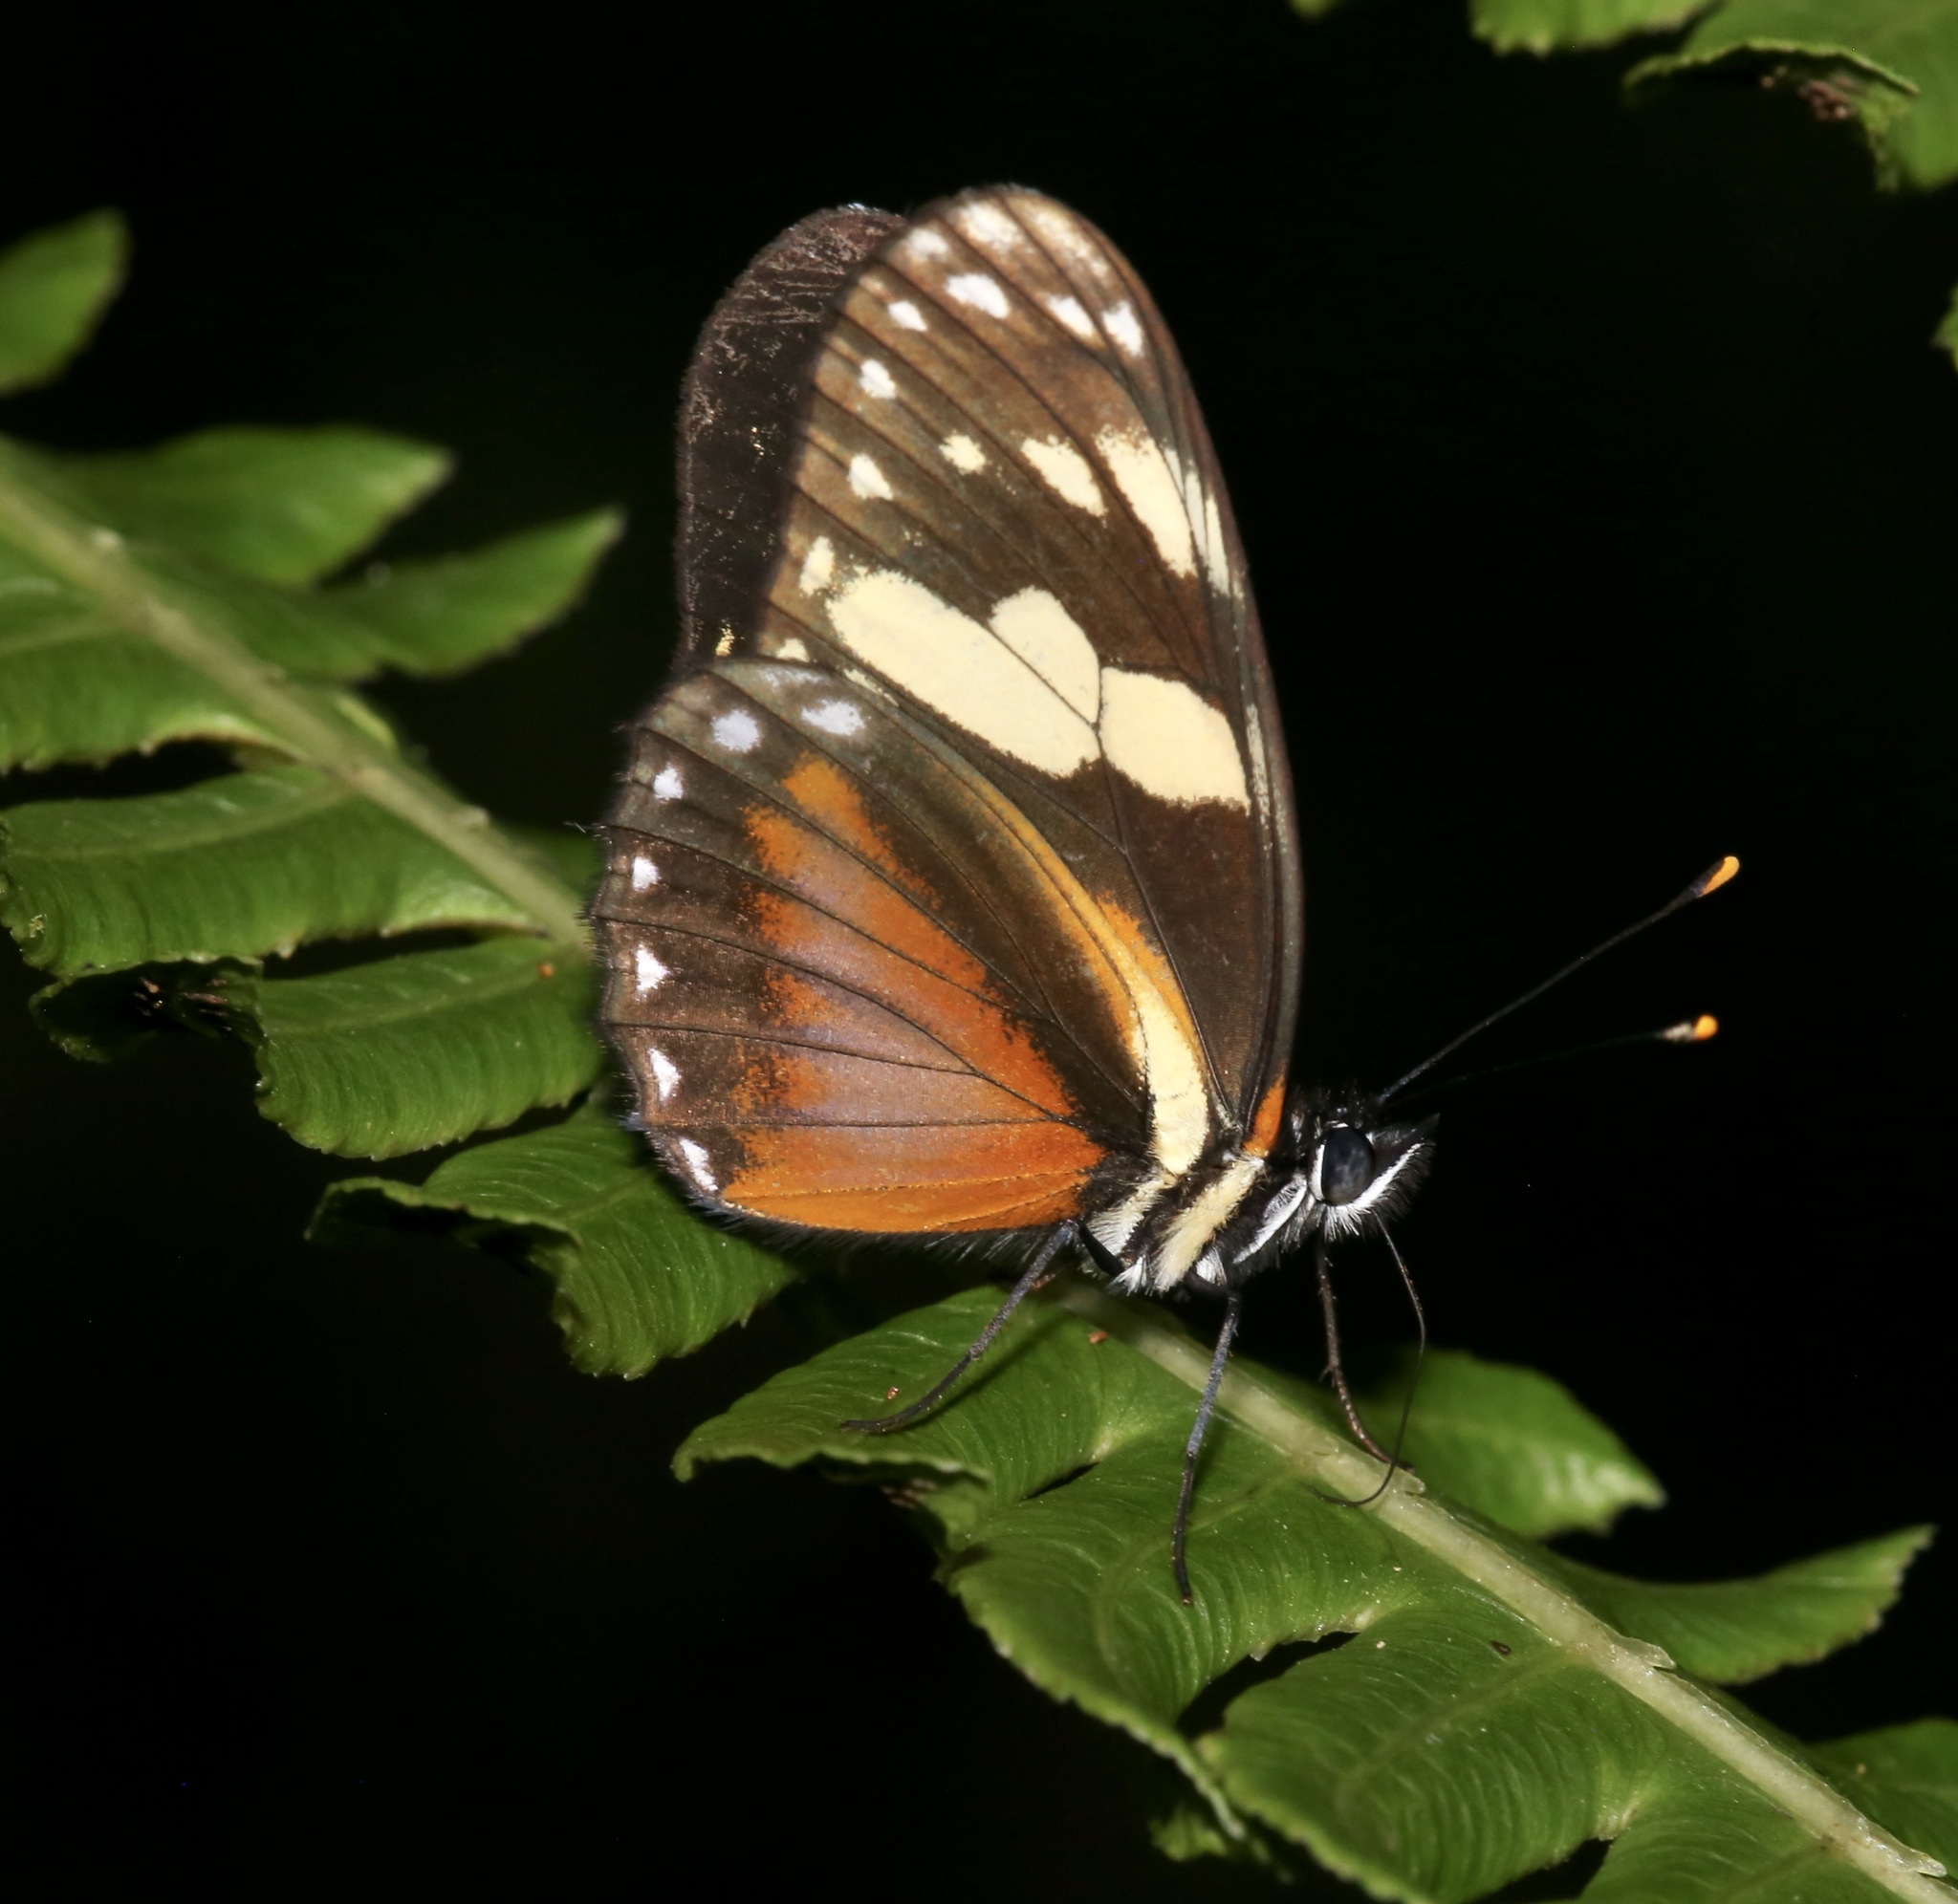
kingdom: Animalia
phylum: Arthropoda
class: Insecta
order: Lepidoptera
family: Nymphalidae
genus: Eresia
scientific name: Eresia datis
